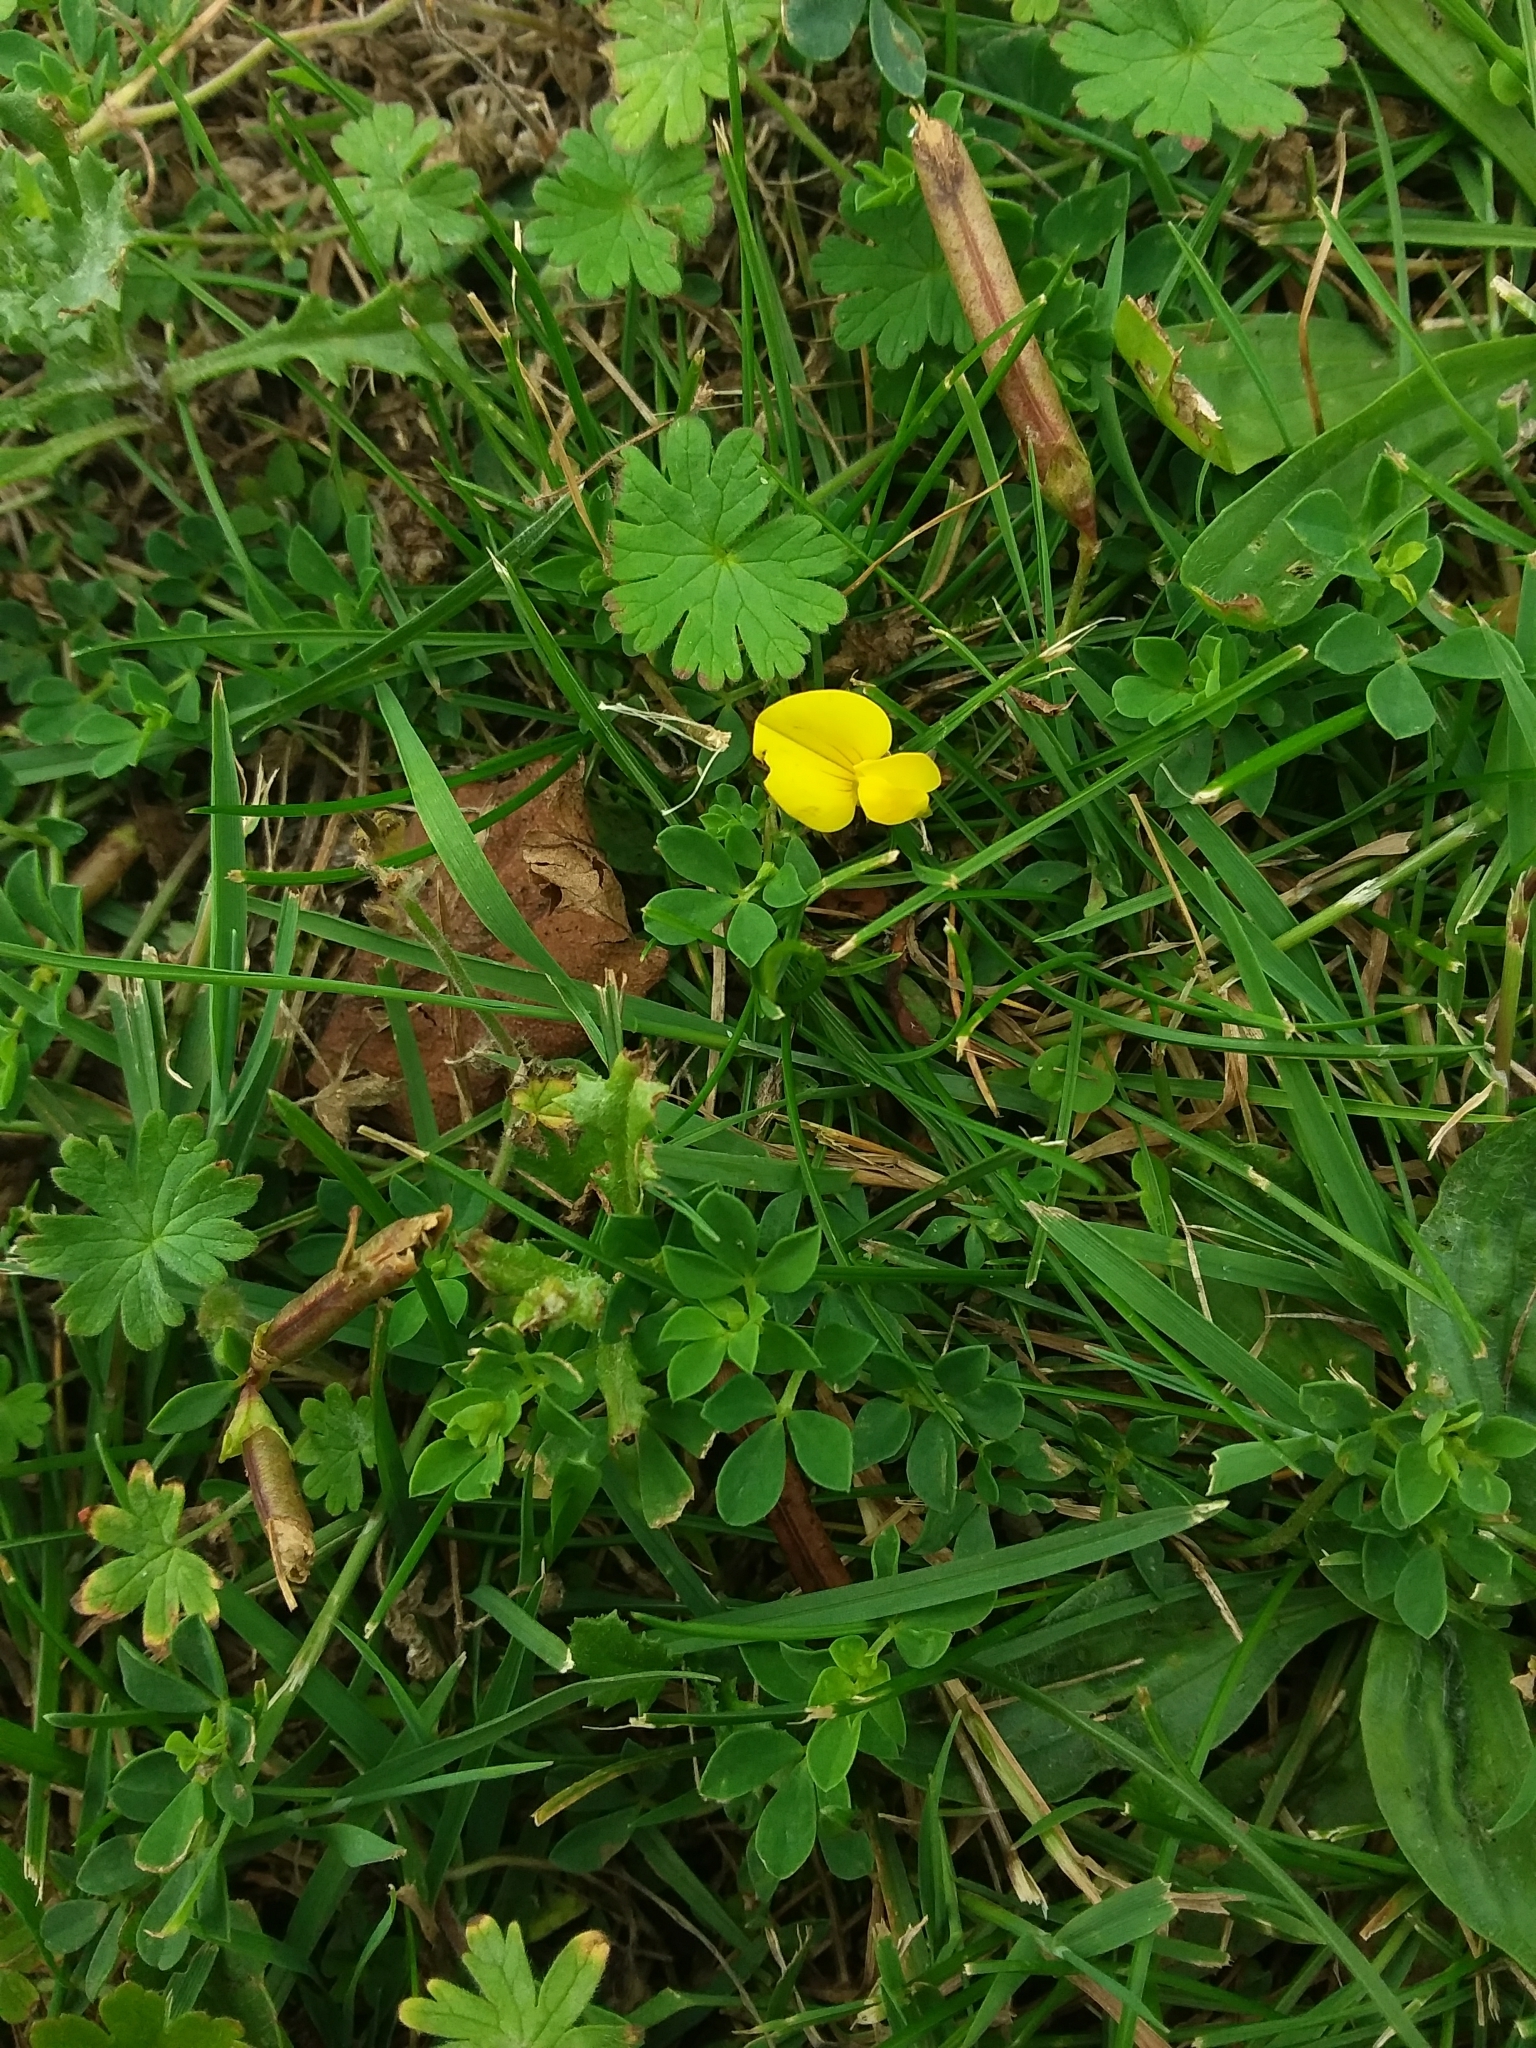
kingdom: Plantae
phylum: Tracheophyta
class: Magnoliopsida
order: Fabales
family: Fabaceae
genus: Lotus
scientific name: Lotus corniculatus
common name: Common bird's-foot-trefoil
